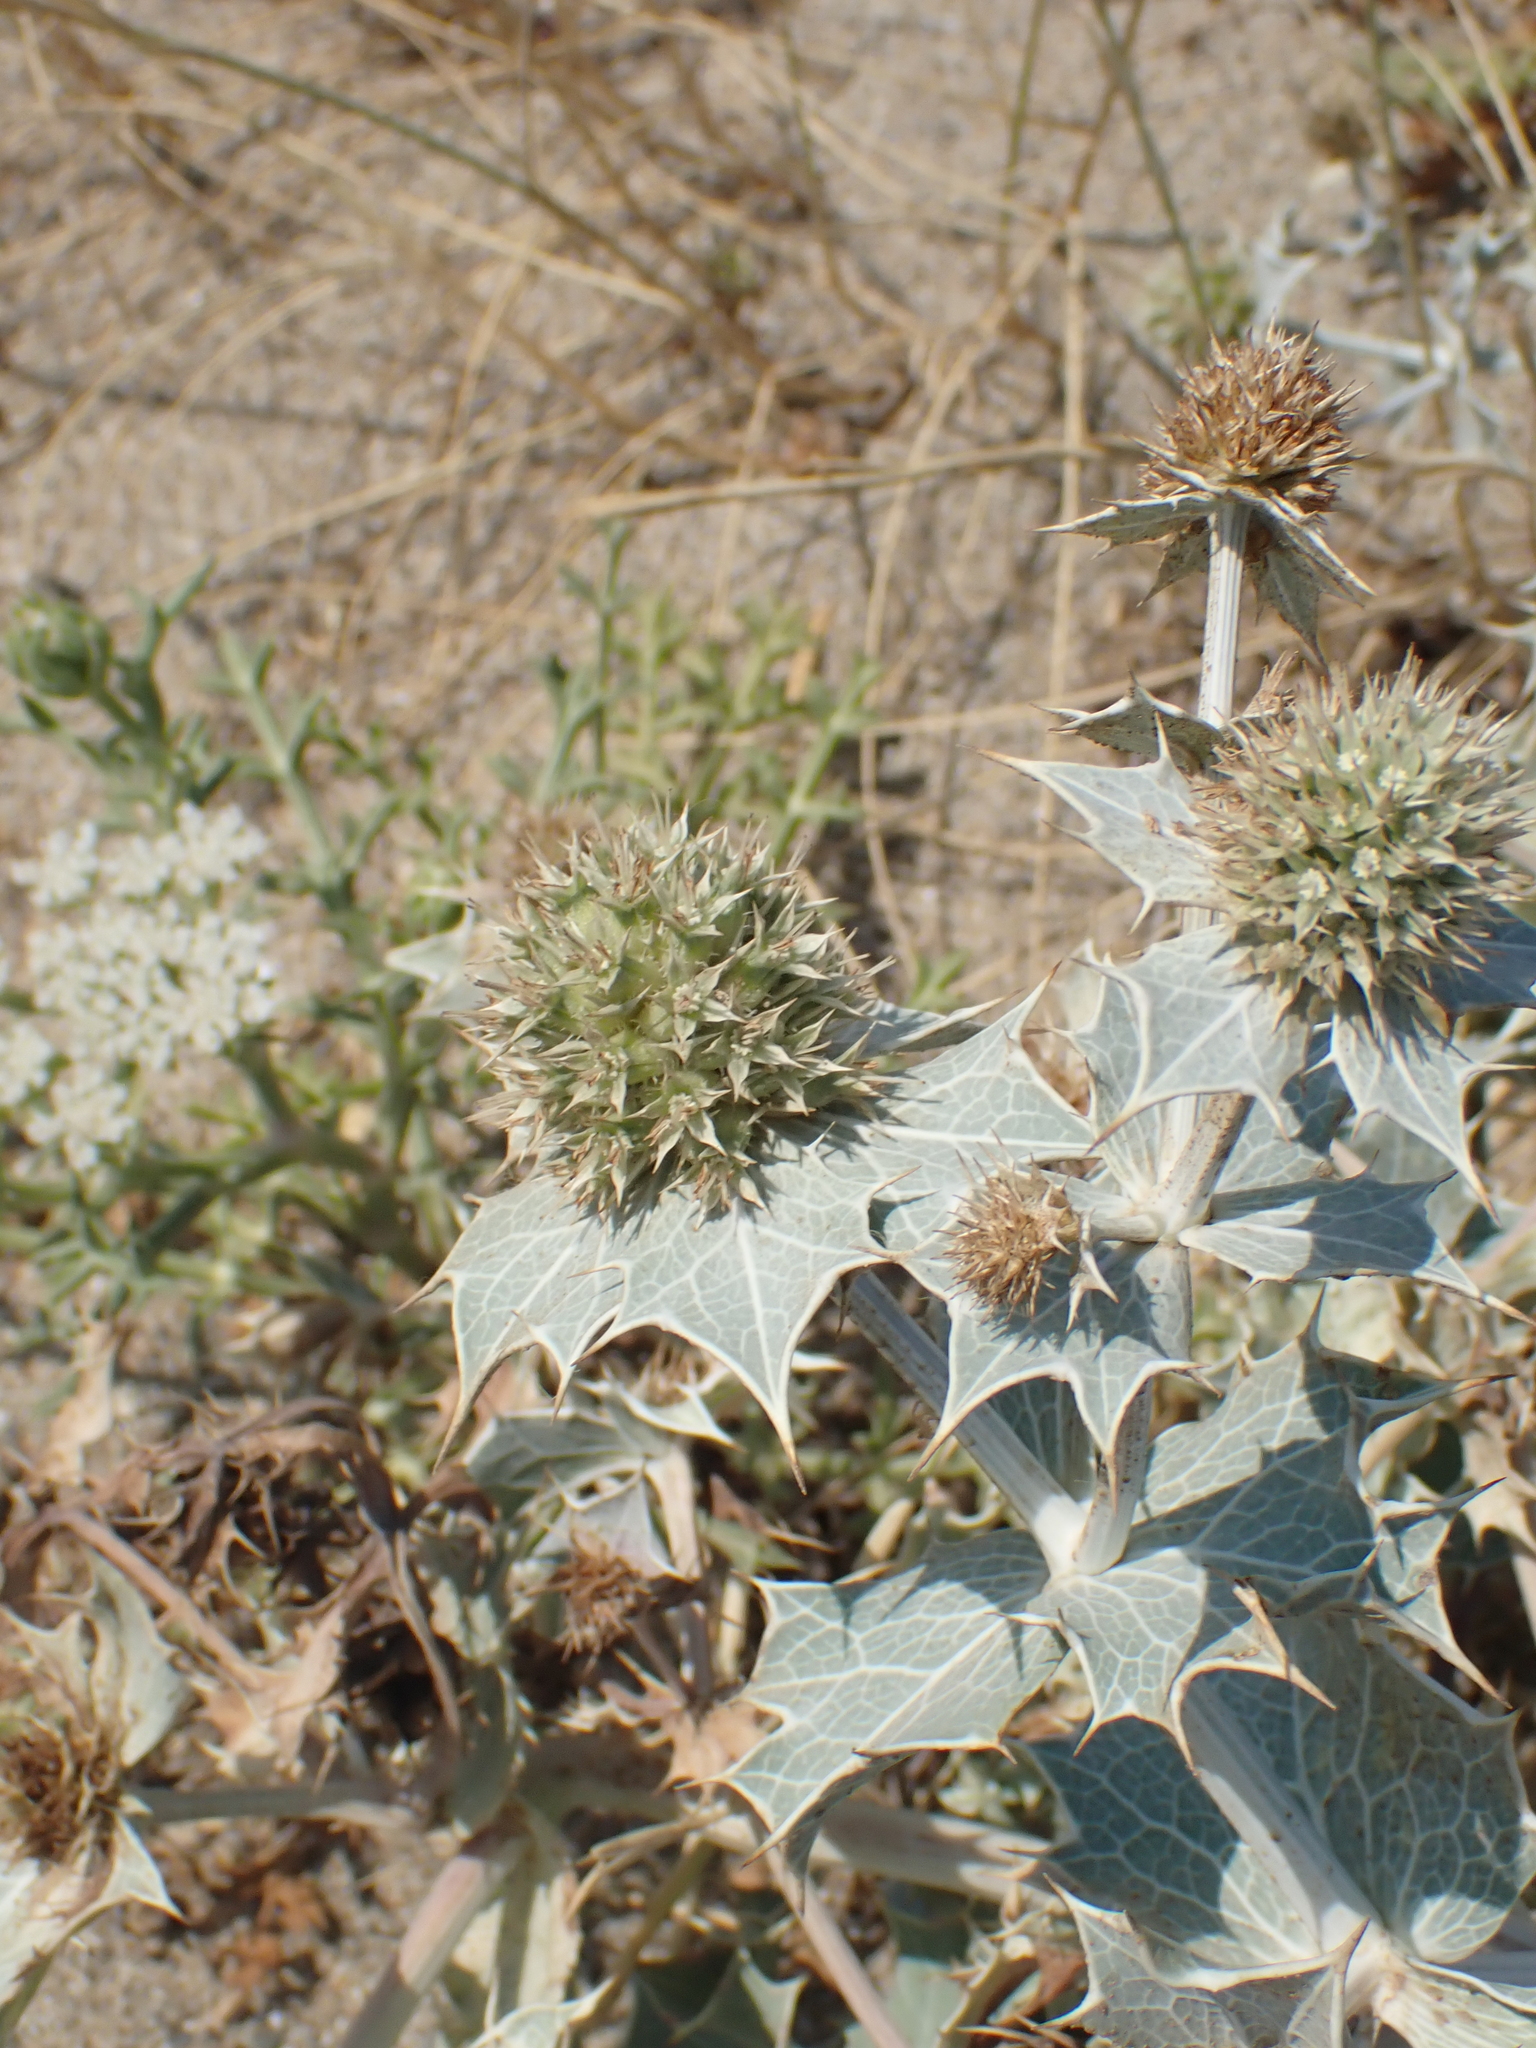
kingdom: Plantae
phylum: Tracheophyta
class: Magnoliopsida
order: Apiales
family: Apiaceae
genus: Eryngium
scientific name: Eryngium maritimum
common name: Sea-holly
